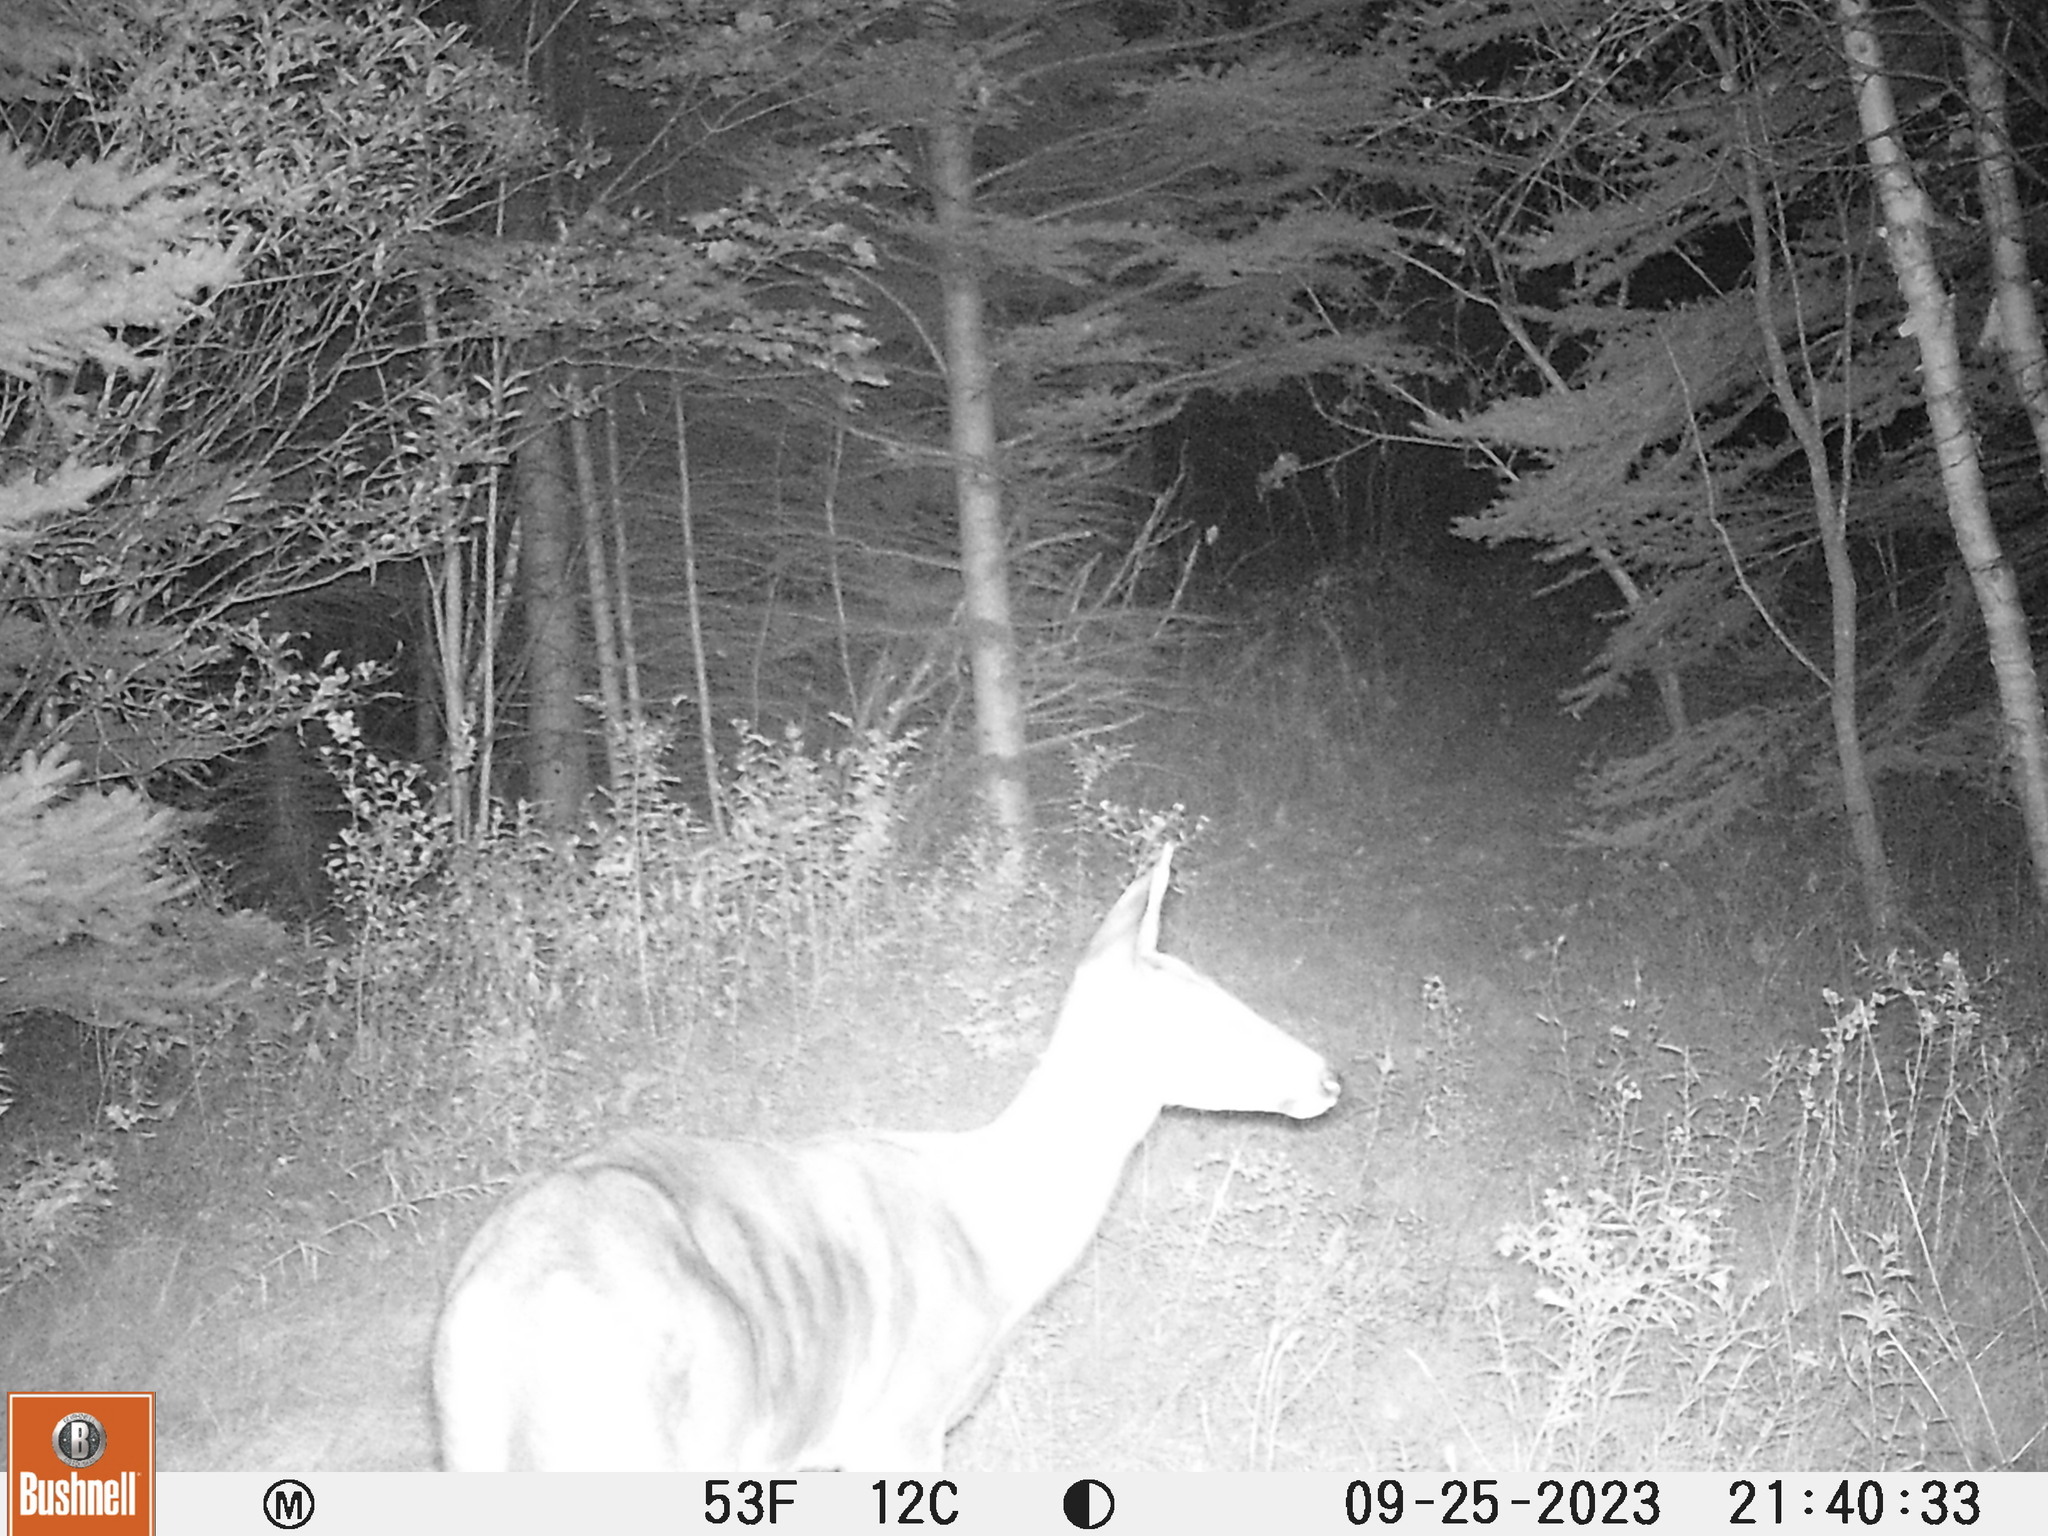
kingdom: Animalia
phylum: Chordata
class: Mammalia
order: Artiodactyla
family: Cervidae
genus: Odocoileus
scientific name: Odocoileus virginianus
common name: White-tailed deer
